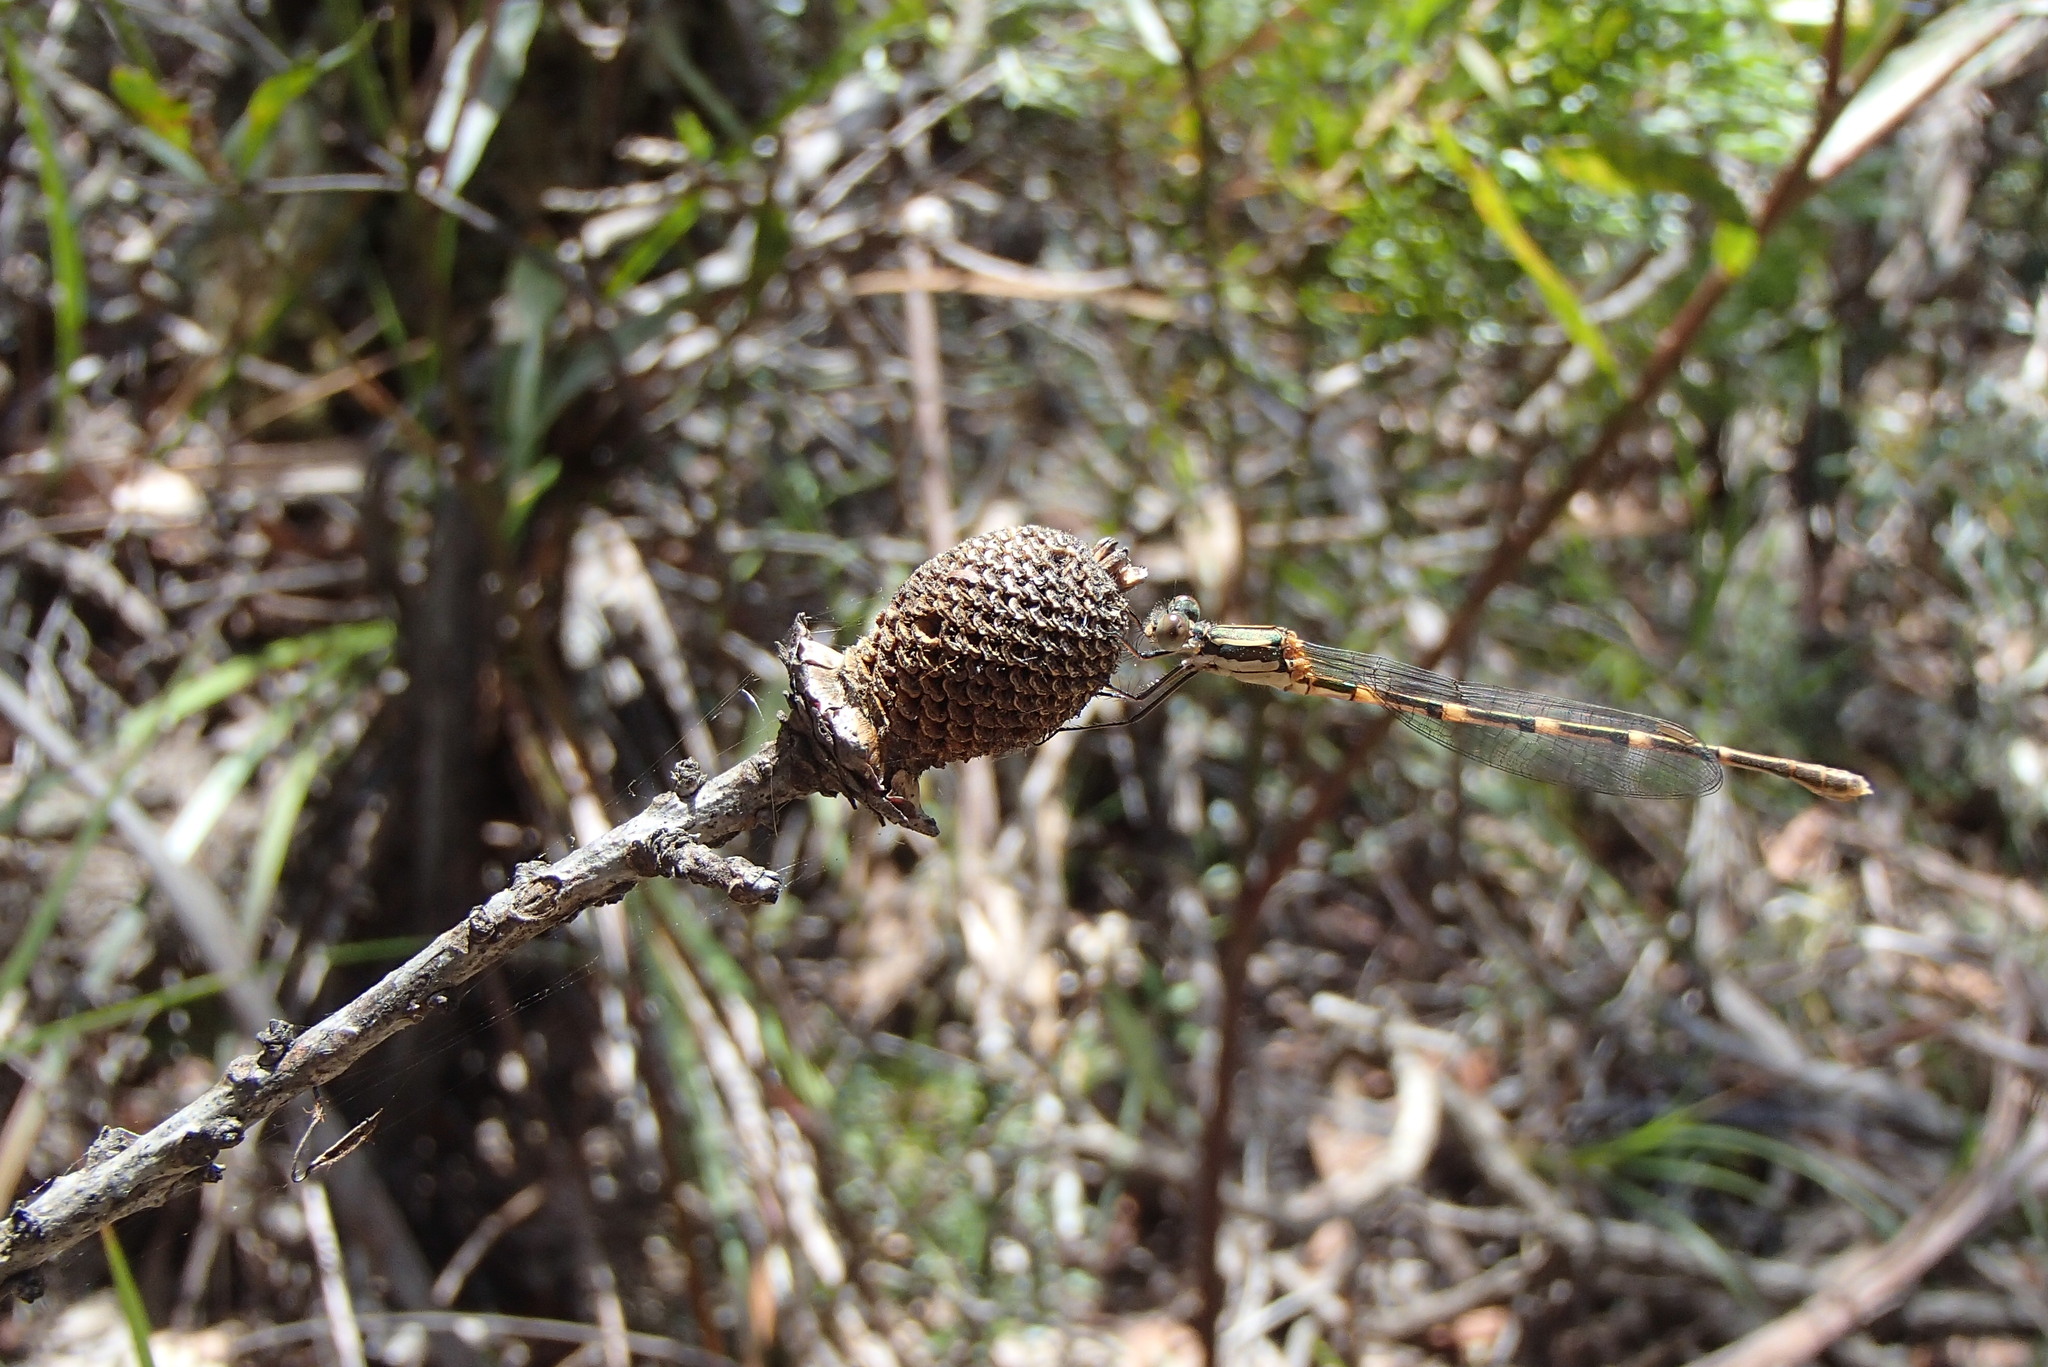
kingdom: Animalia
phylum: Arthropoda
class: Insecta
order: Odonata
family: Lestidae
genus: Austrolestes
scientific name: Austrolestes leda
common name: Wandering ringtail
